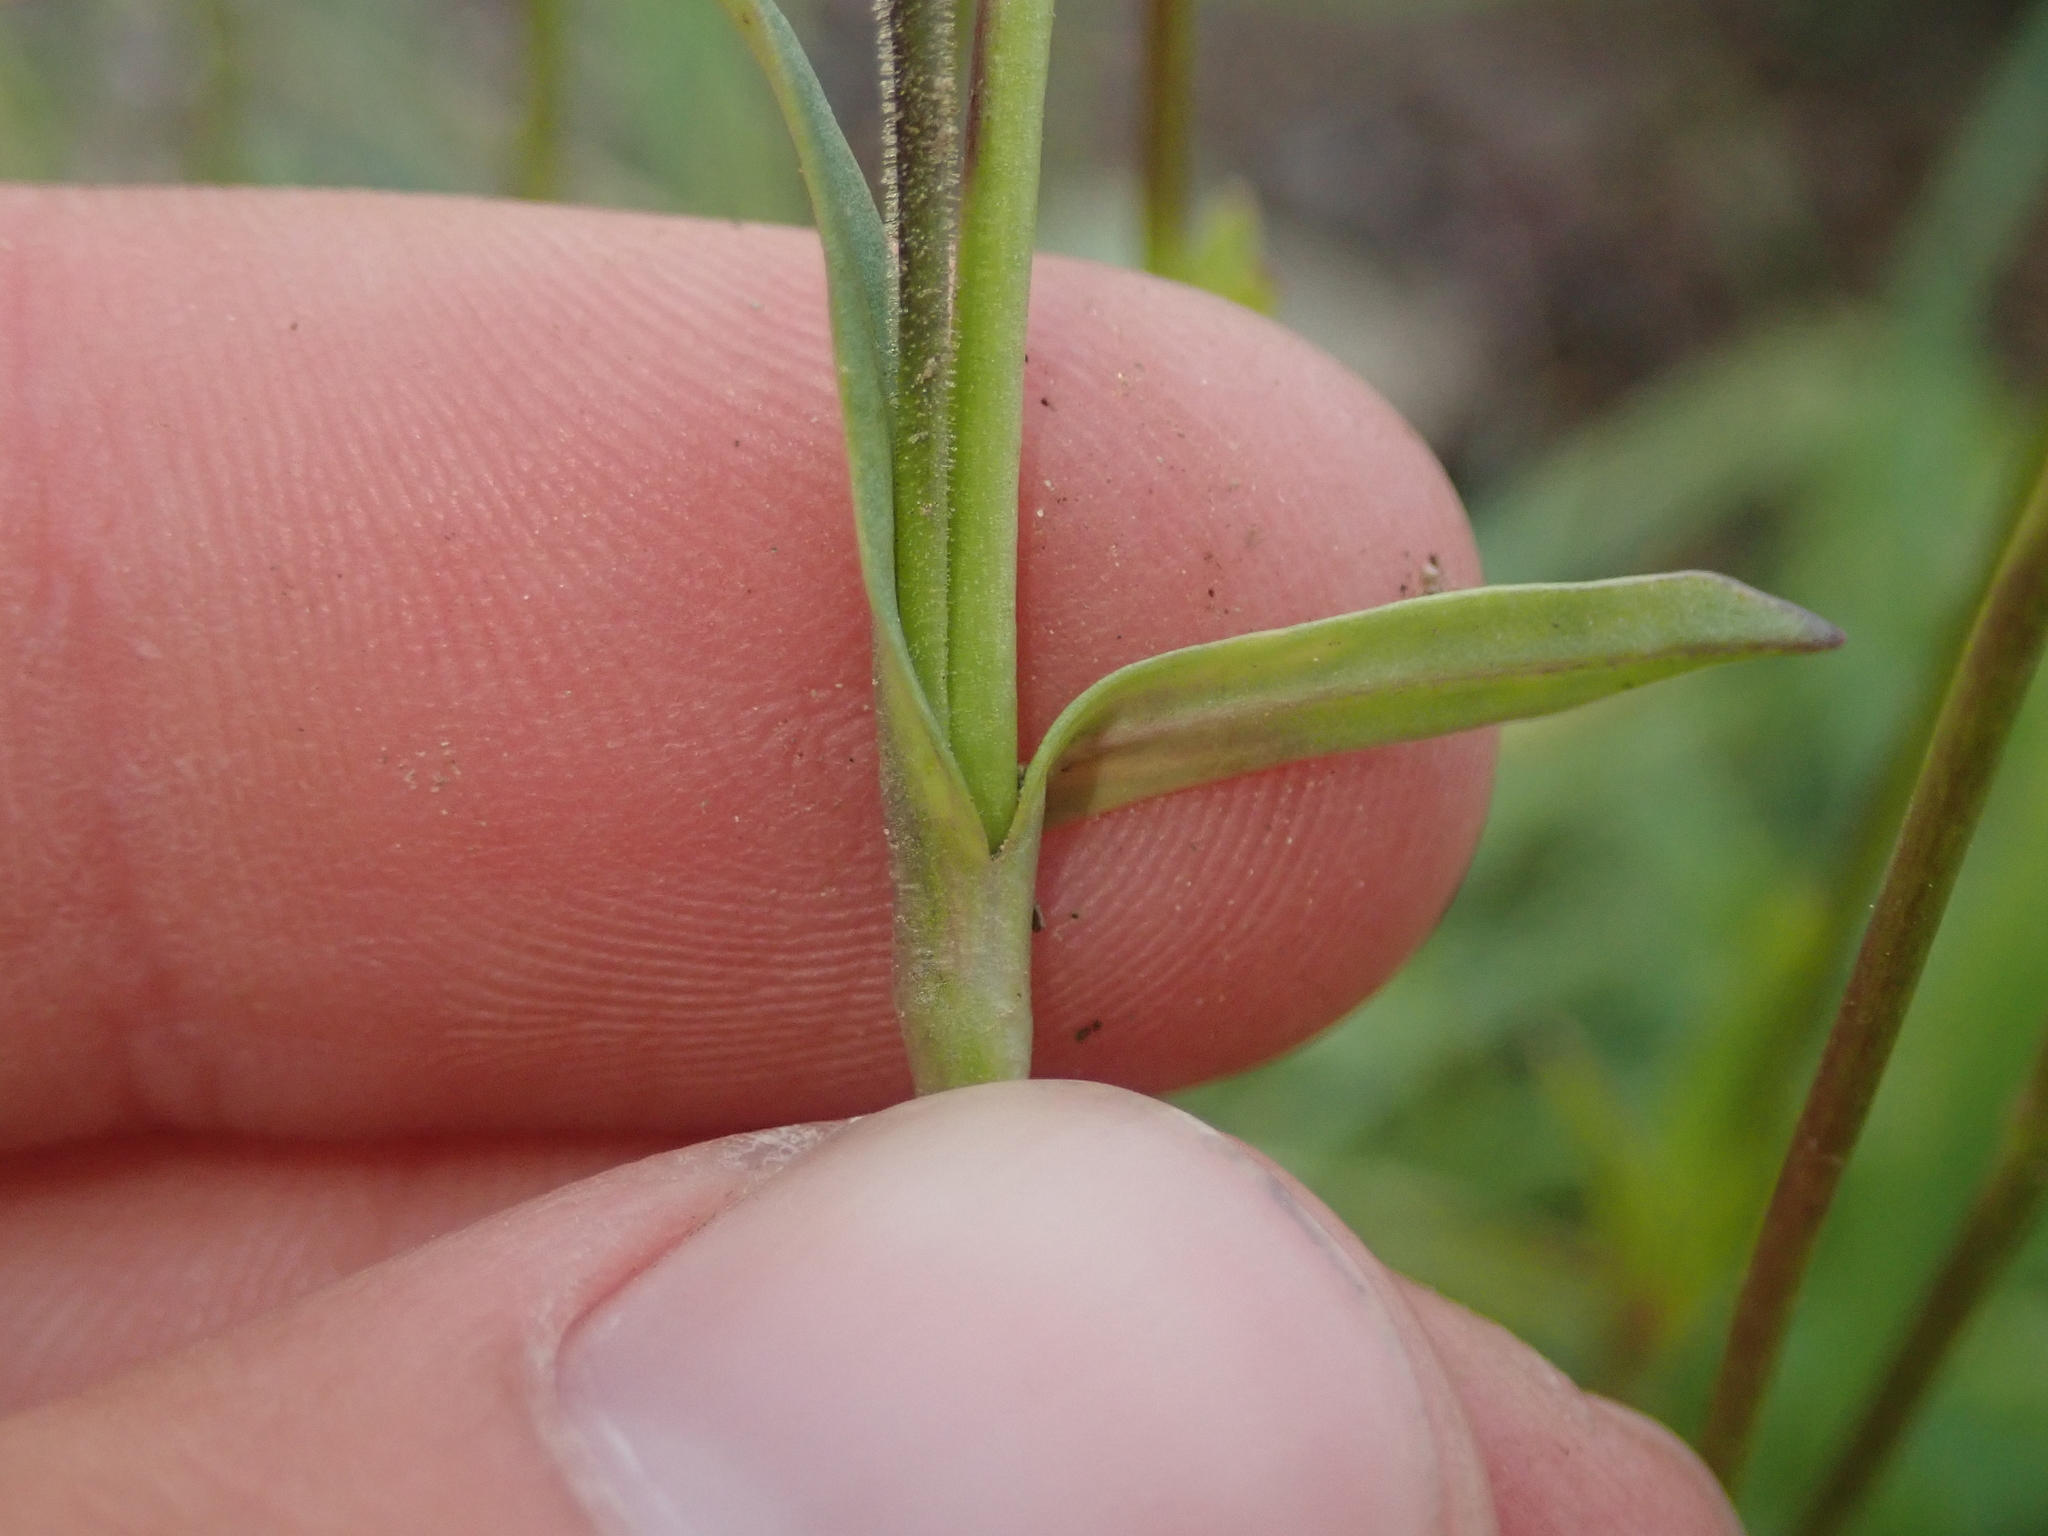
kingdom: Plantae
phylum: Tracheophyta
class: Magnoliopsida
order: Lamiales
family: Plantaginaceae
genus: Chionophila
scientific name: Chionophila tweedyi
